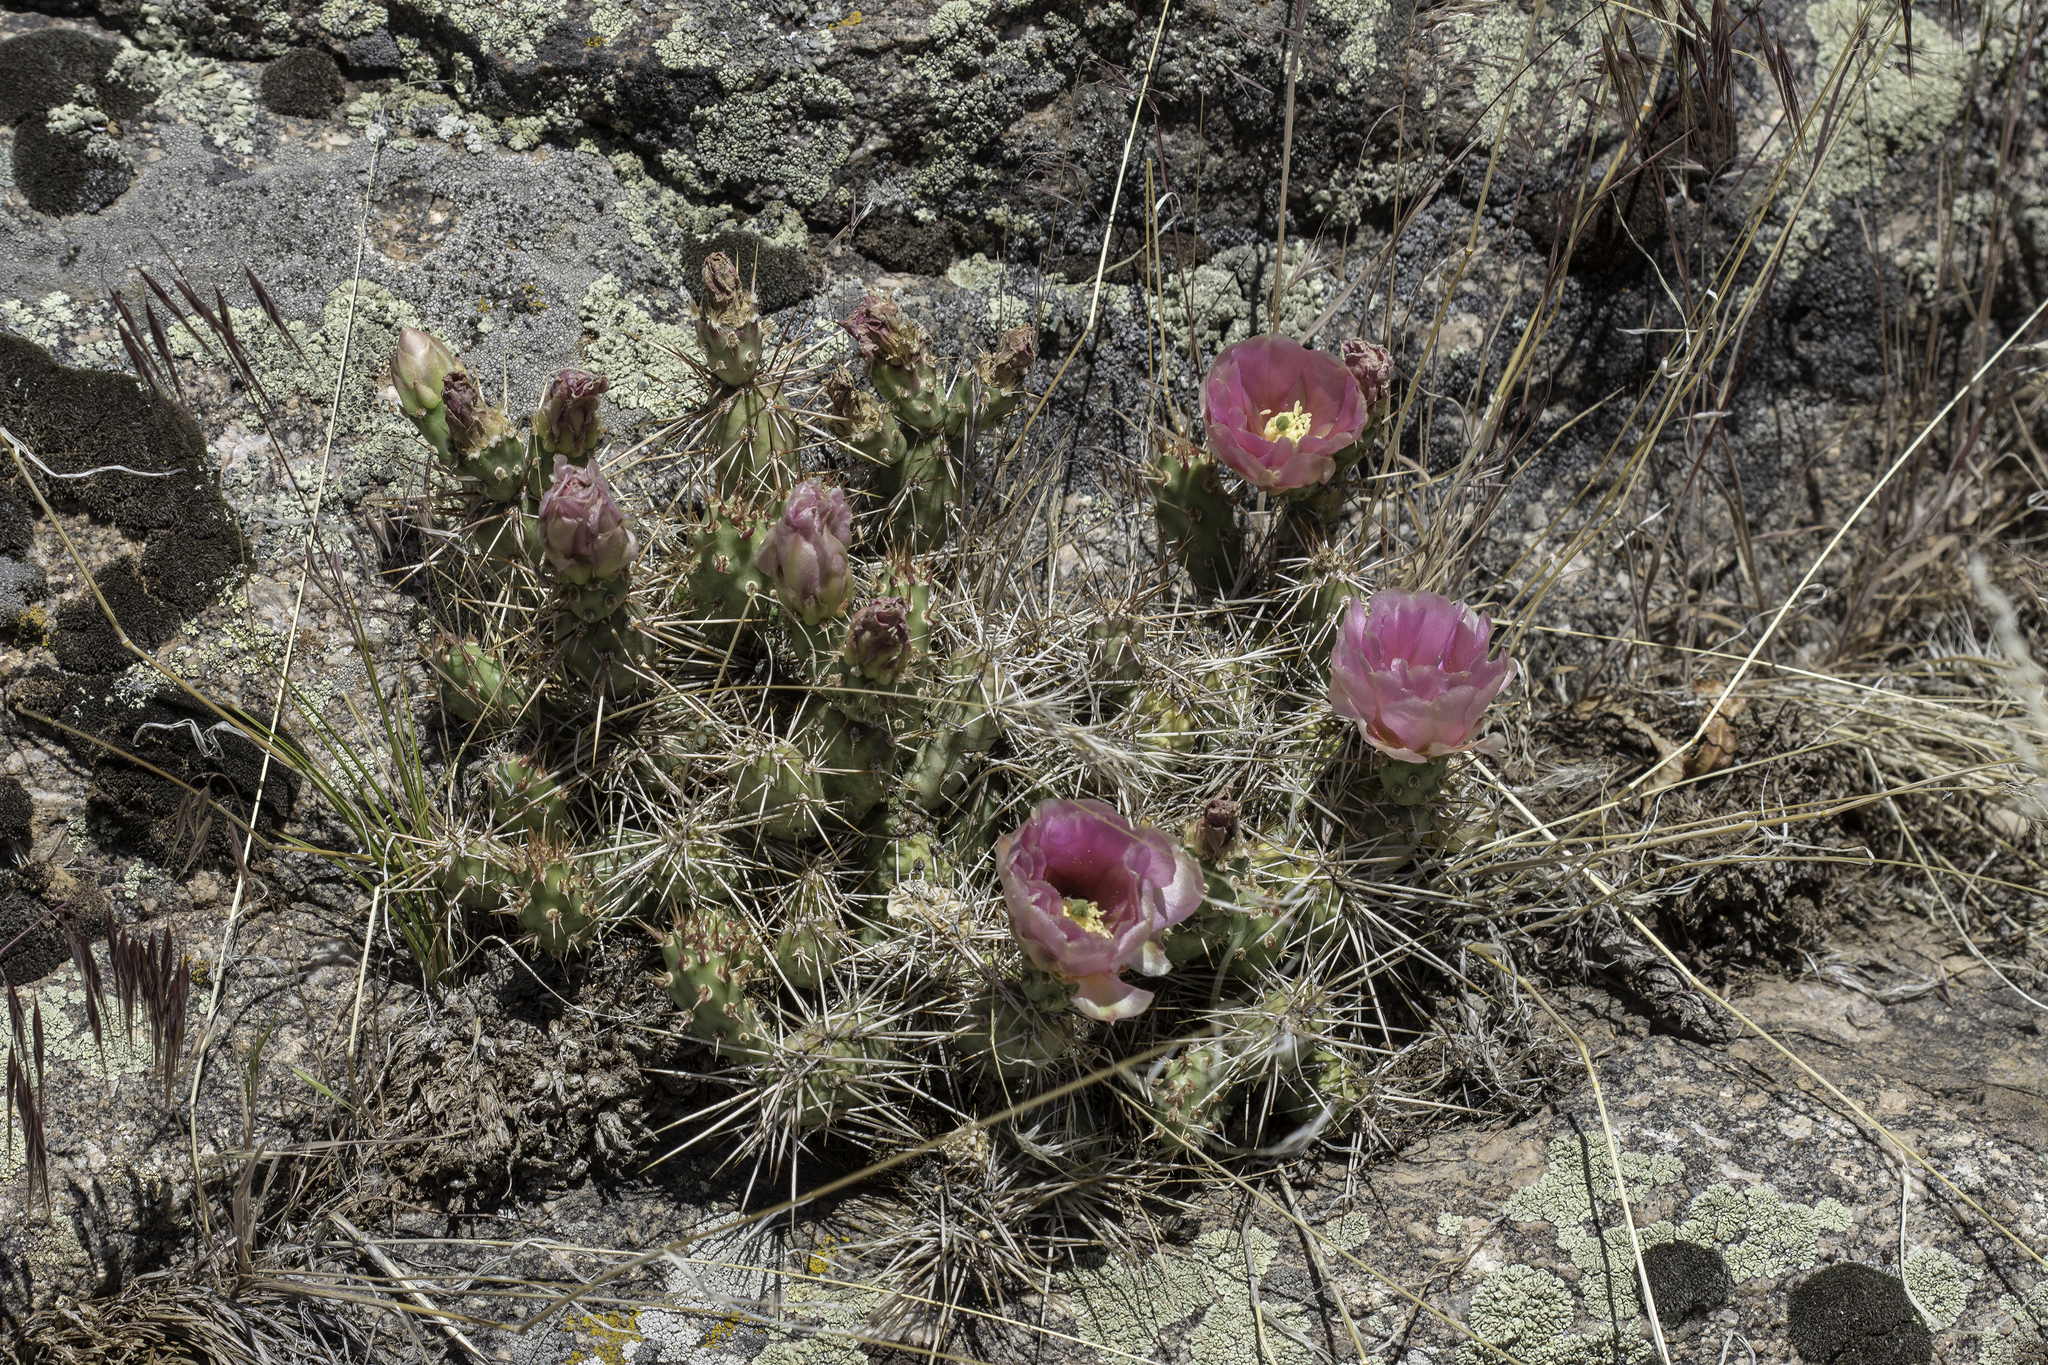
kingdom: Plantae
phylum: Tracheophyta
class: Magnoliopsida
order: Caryophyllales
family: Cactaceae
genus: Opuntia
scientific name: Opuntia fragilis
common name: Brittle cactus
